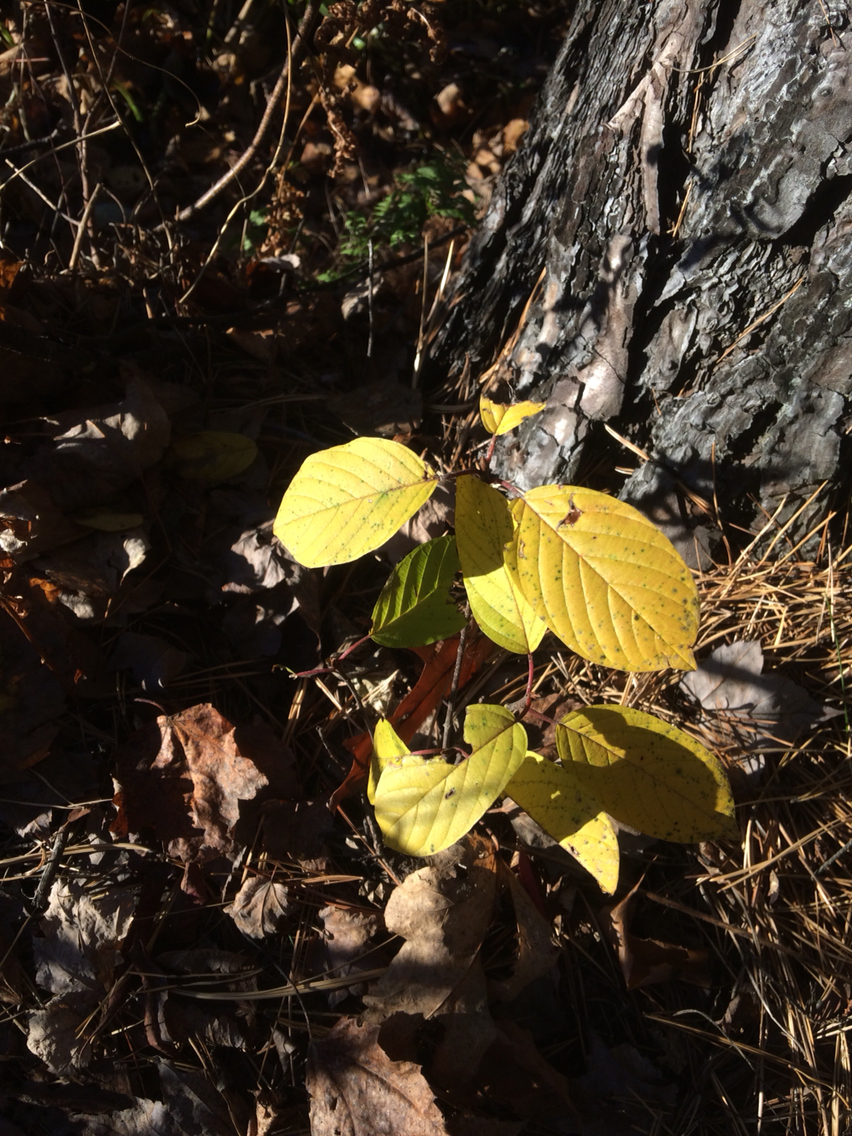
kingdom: Plantae
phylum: Tracheophyta
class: Magnoliopsida
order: Rosales
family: Rhamnaceae
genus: Frangula
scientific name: Frangula alnus
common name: Alder buckthorn
